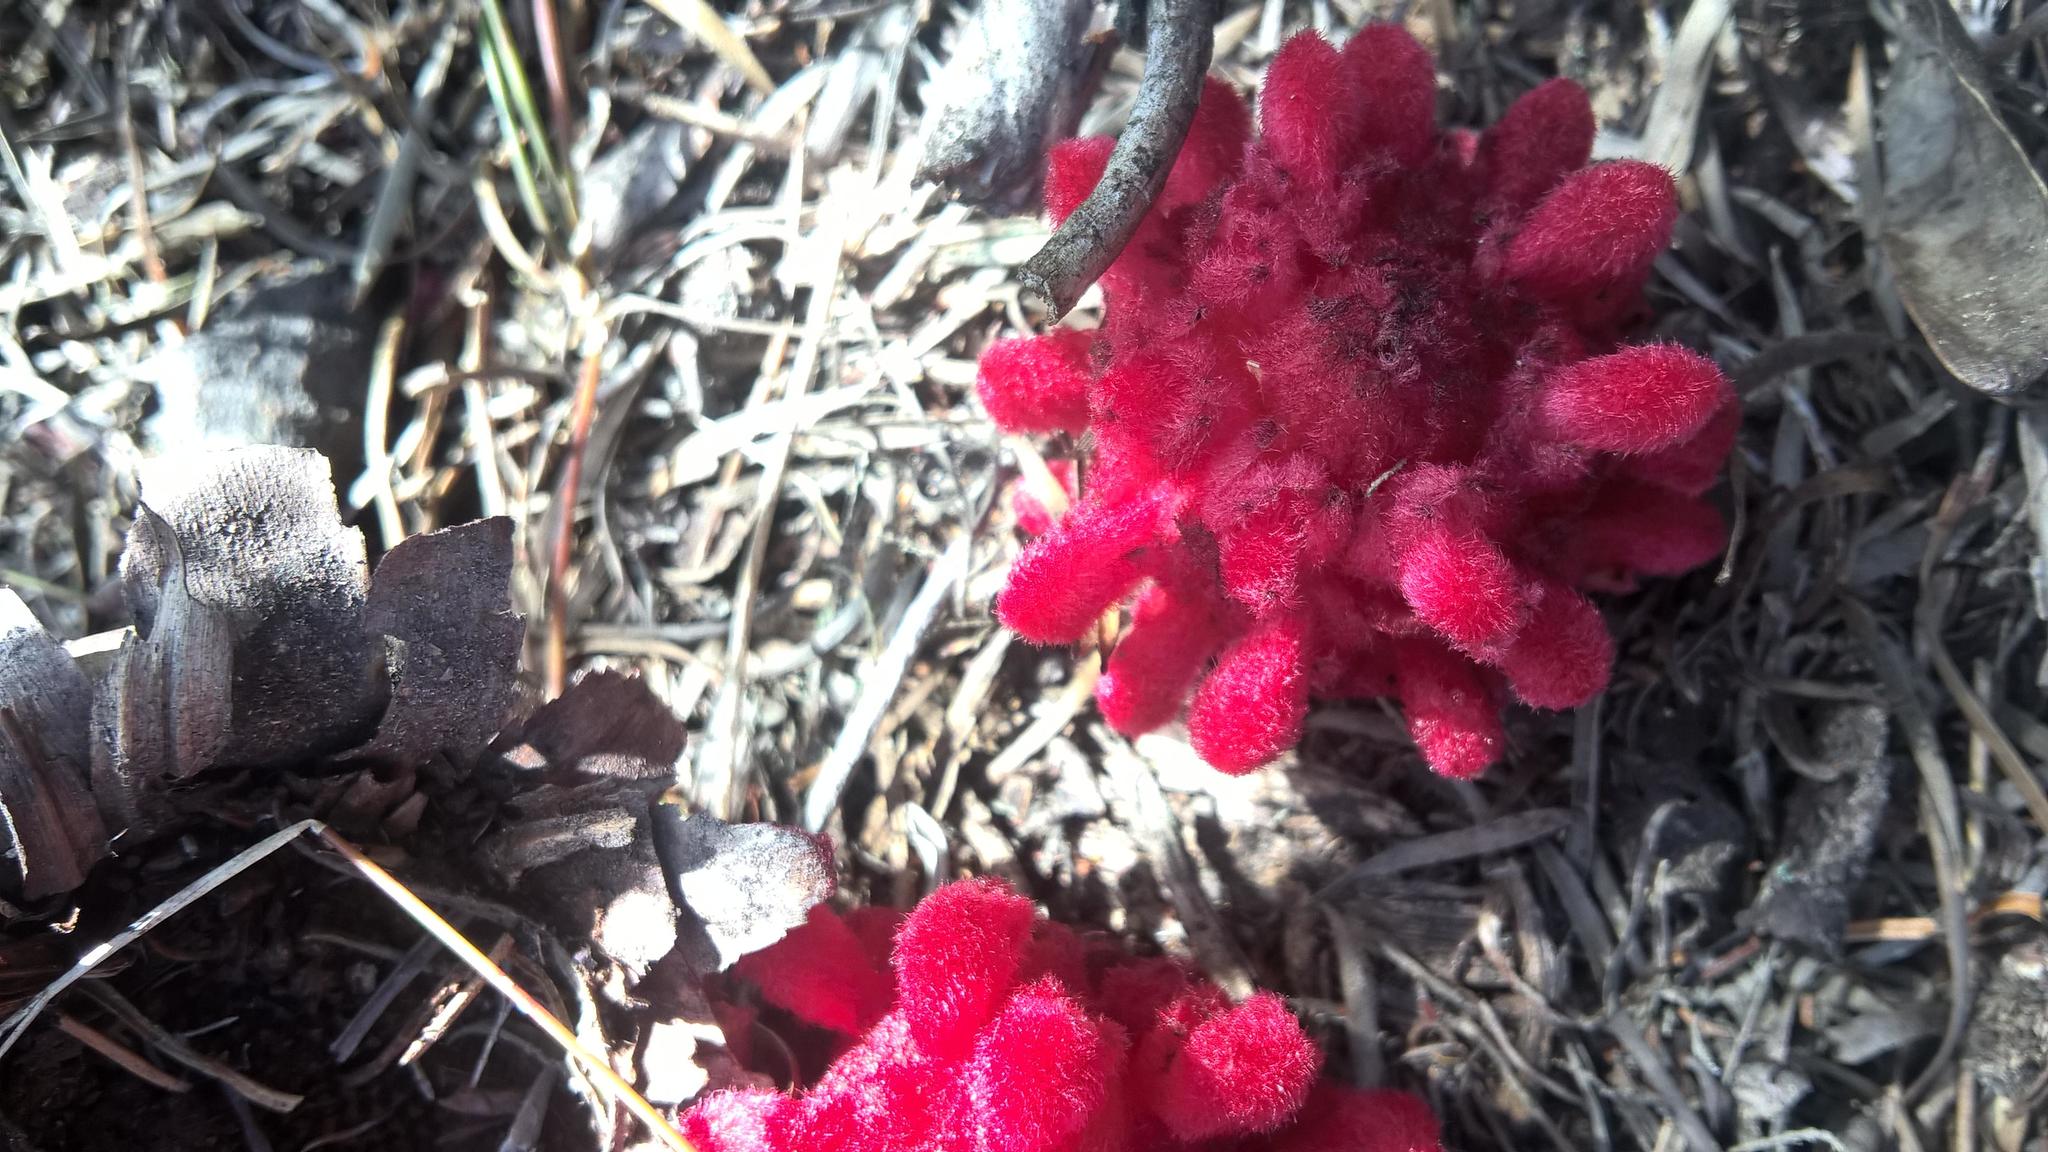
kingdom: Plantae
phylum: Tracheophyta
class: Magnoliopsida
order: Lamiales
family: Orobanchaceae
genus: Hyobanche
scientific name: Hyobanche sanguinea
